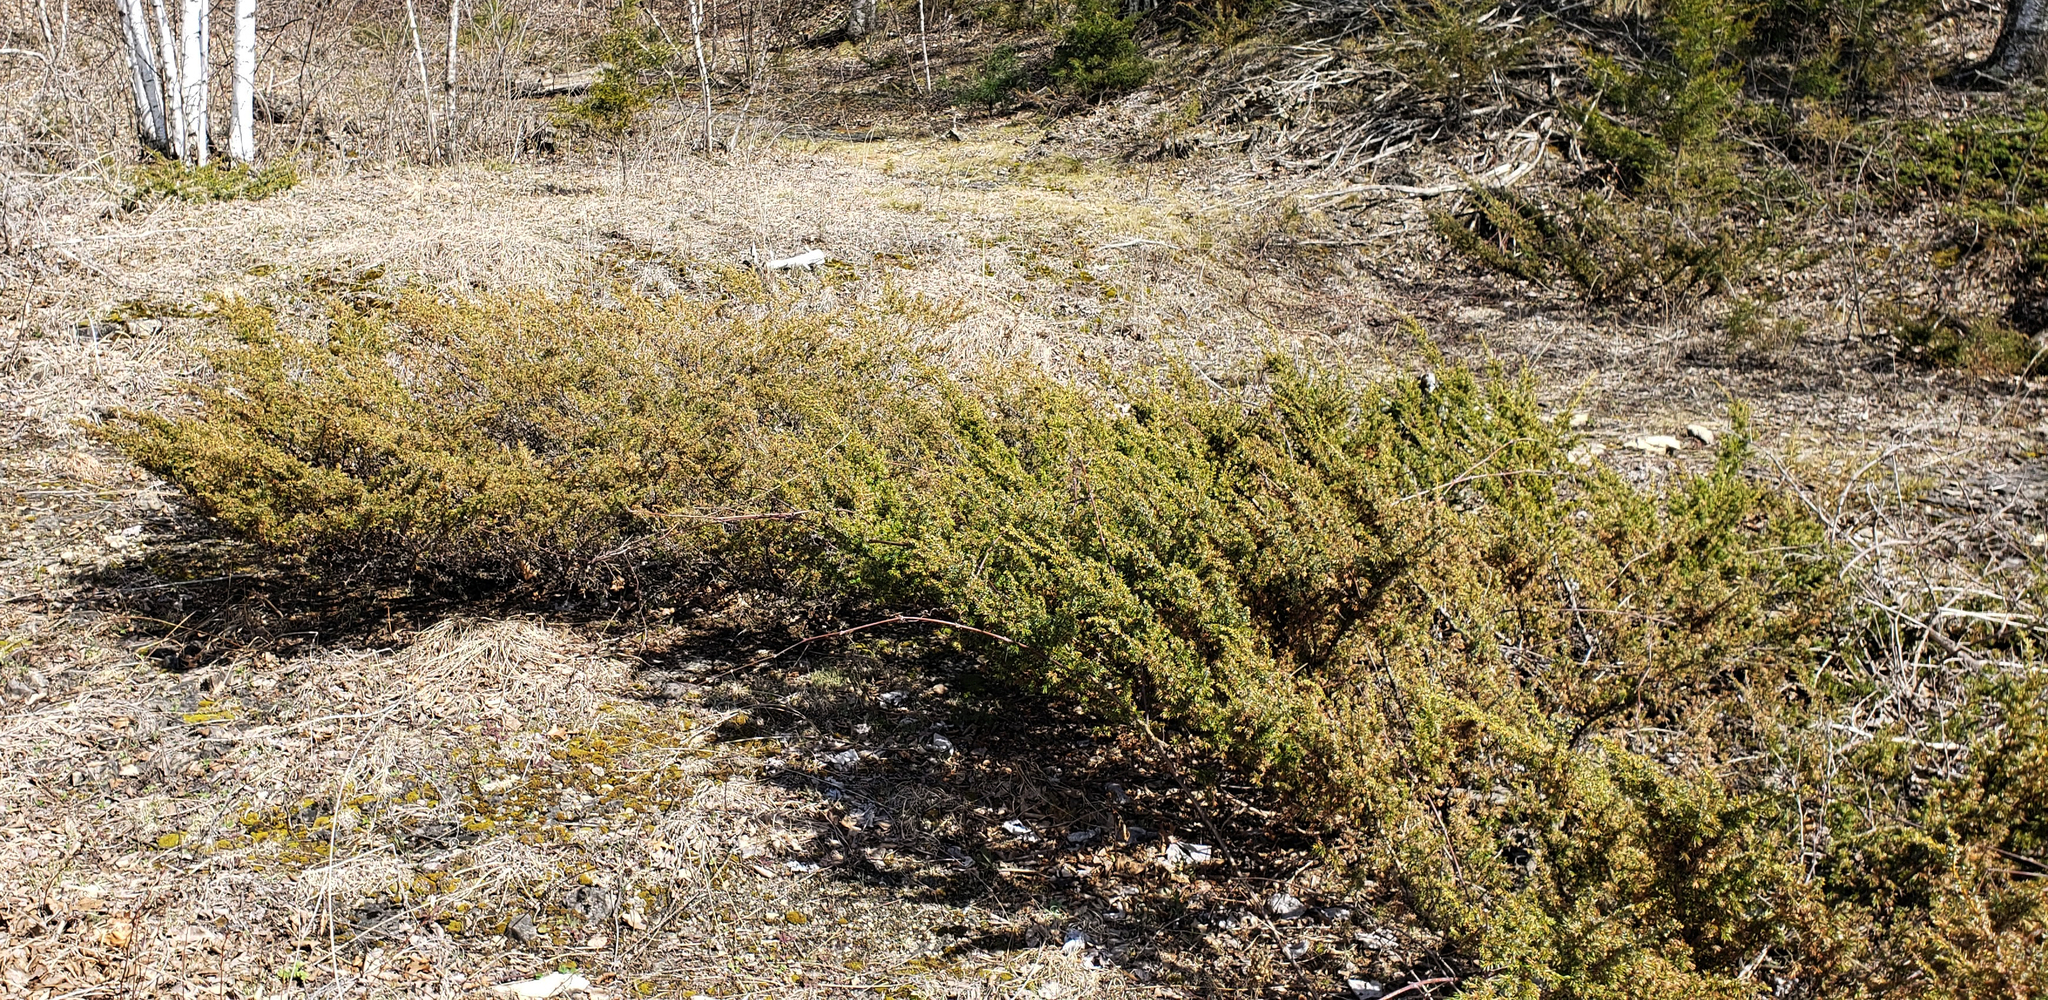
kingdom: Plantae
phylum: Tracheophyta
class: Pinopsida
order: Pinales
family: Cupressaceae
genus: Juniperus
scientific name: Juniperus communis
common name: Common juniper
